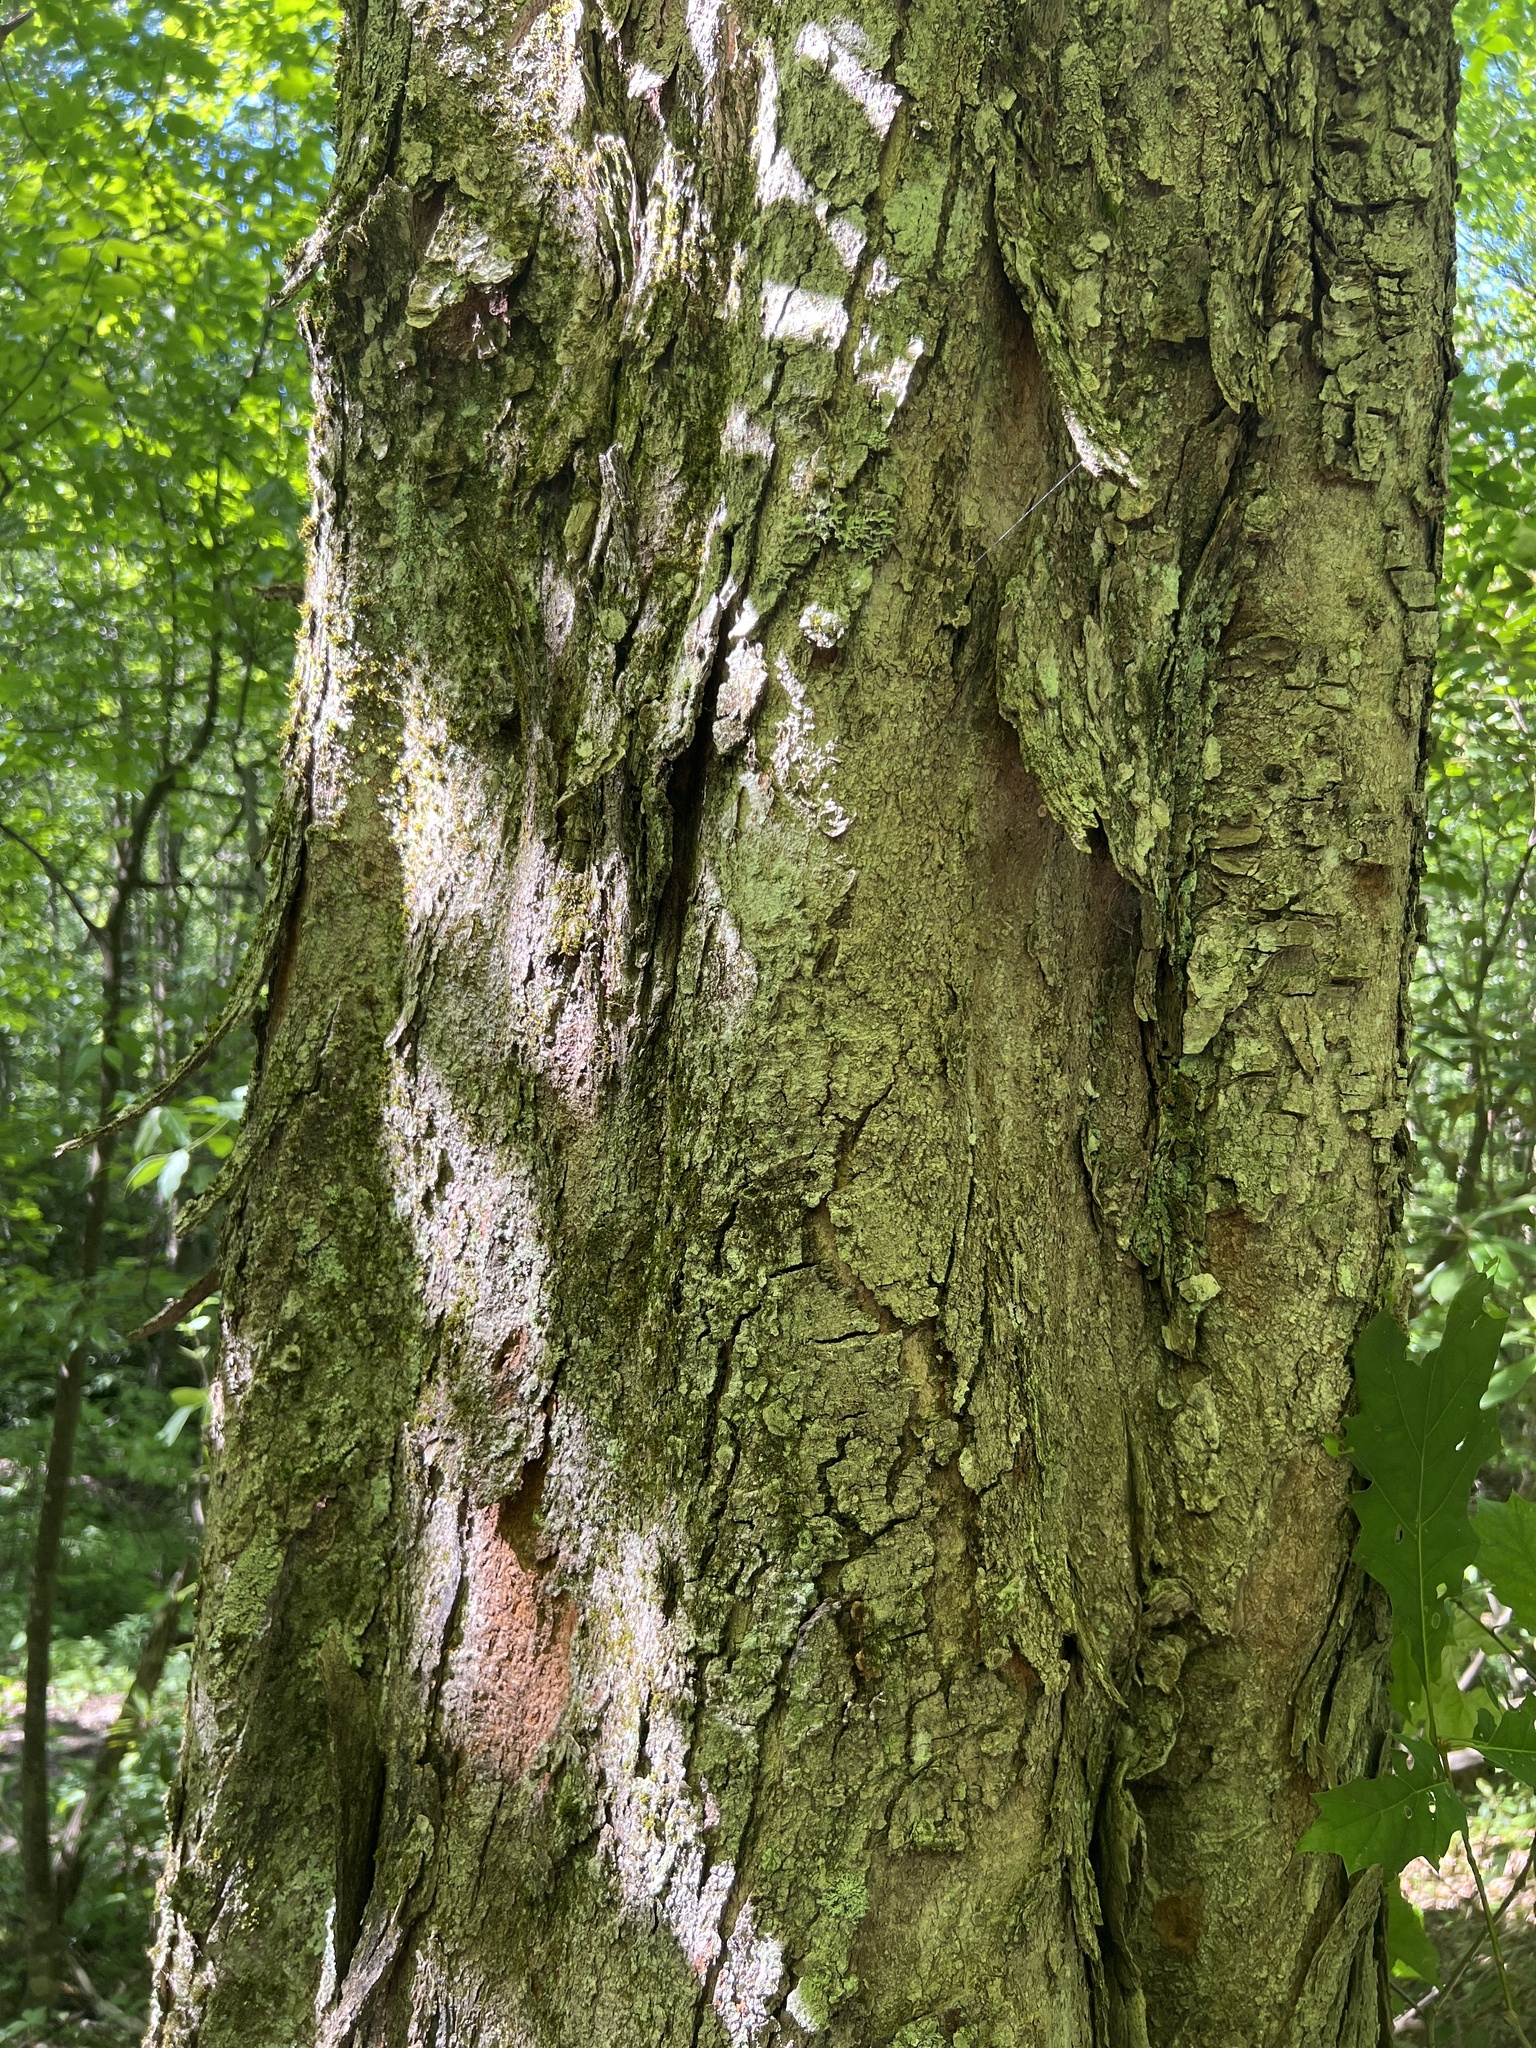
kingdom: Plantae
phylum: Tracheophyta
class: Magnoliopsida
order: Sapindales
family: Sapindaceae
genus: Acer
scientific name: Acer rubrum
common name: Red maple
